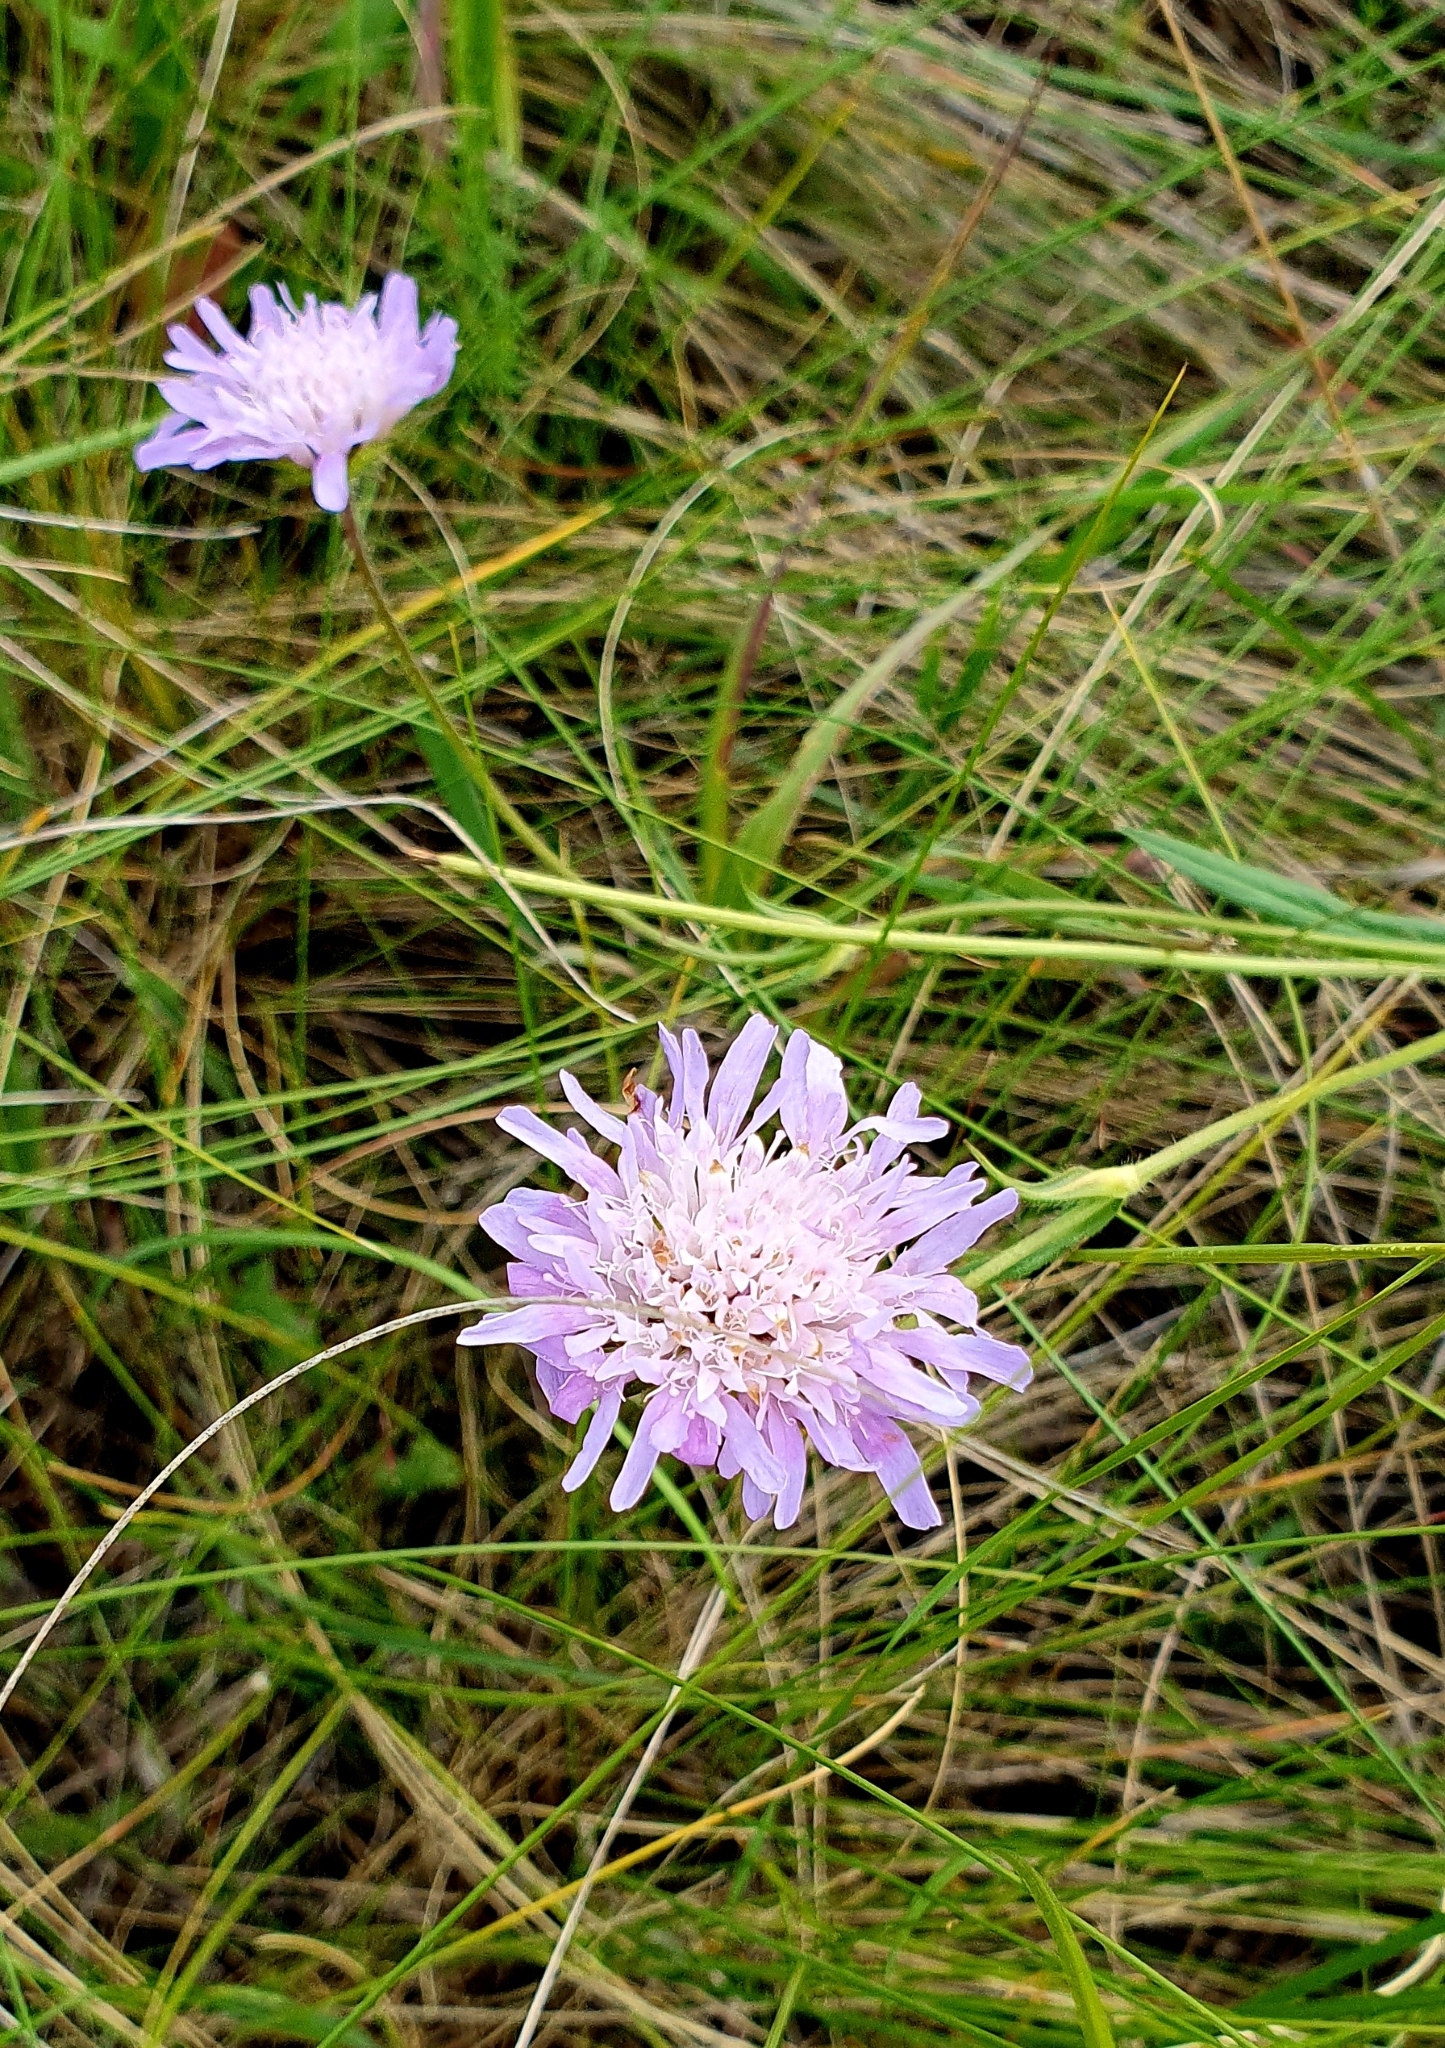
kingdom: Plantae
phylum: Tracheophyta
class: Magnoliopsida
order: Dipsacales
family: Caprifoliaceae
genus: Knautia
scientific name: Knautia arvensis
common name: Field scabiosa
